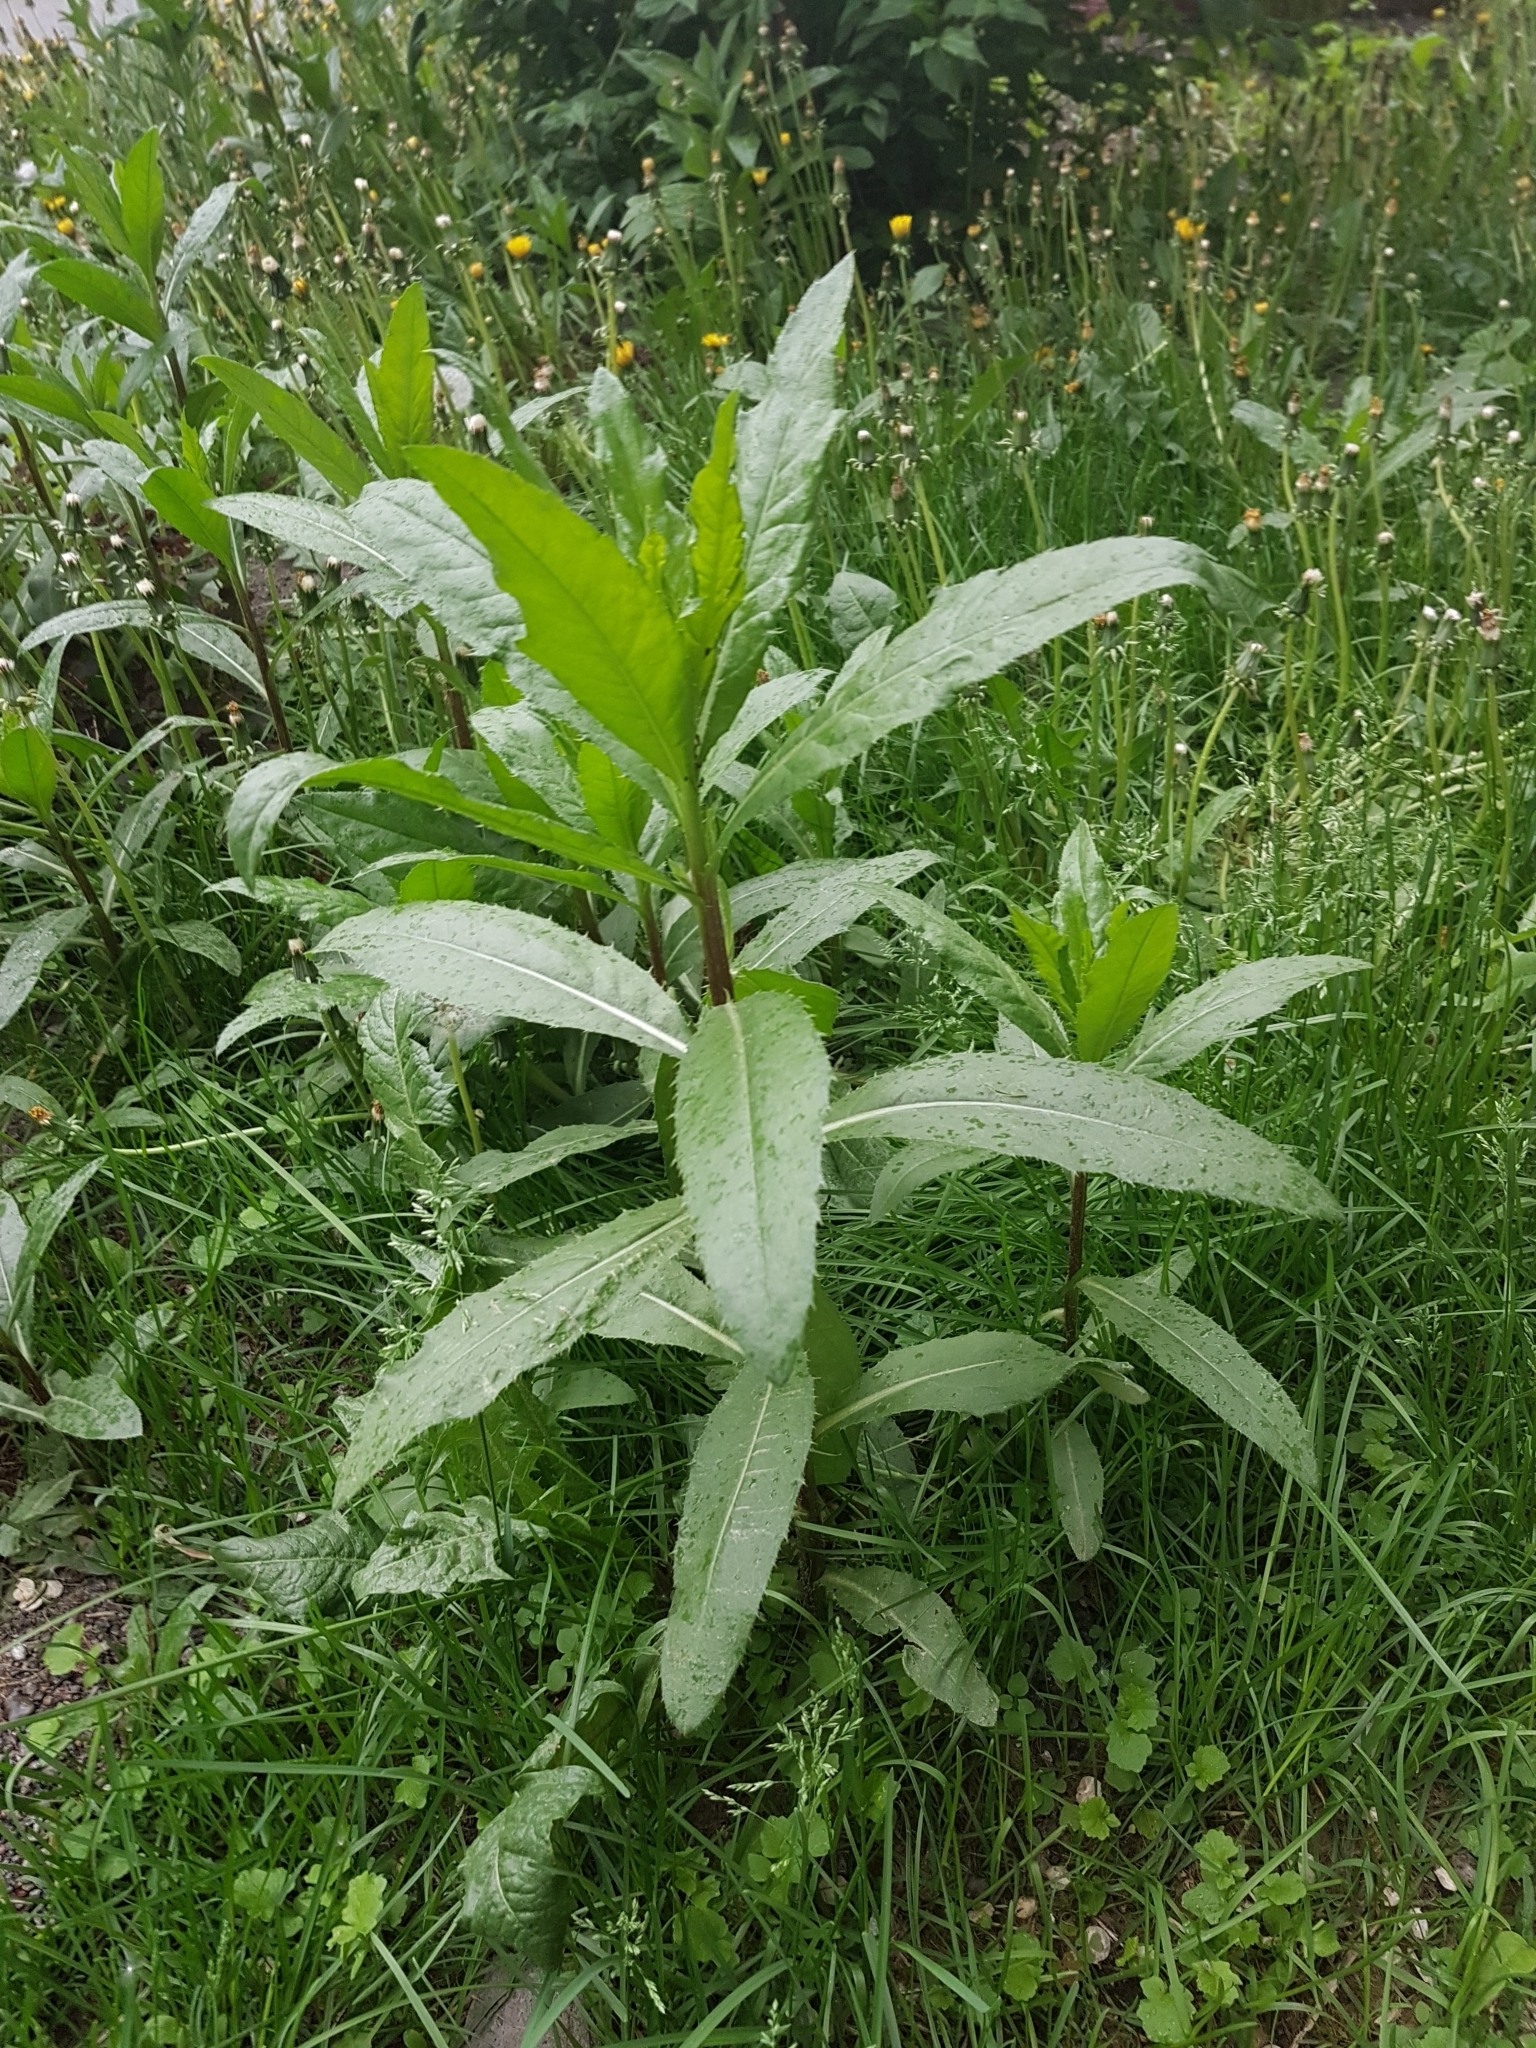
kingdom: Plantae
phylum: Tracheophyta
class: Magnoliopsida
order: Asterales
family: Asteraceae
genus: Cirsium
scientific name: Cirsium arvense
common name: Creeping thistle
